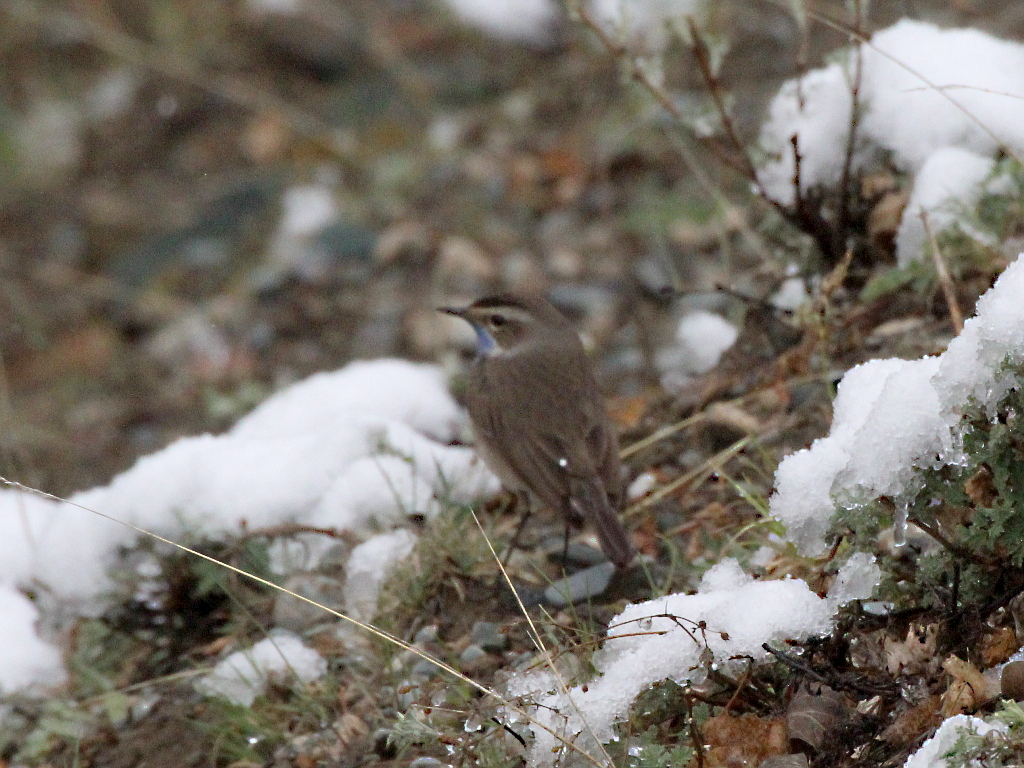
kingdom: Animalia
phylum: Chordata
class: Aves
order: Passeriformes
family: Muscicapidae
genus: Luscinia
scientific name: Luscinia svecica
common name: Bluethroat
